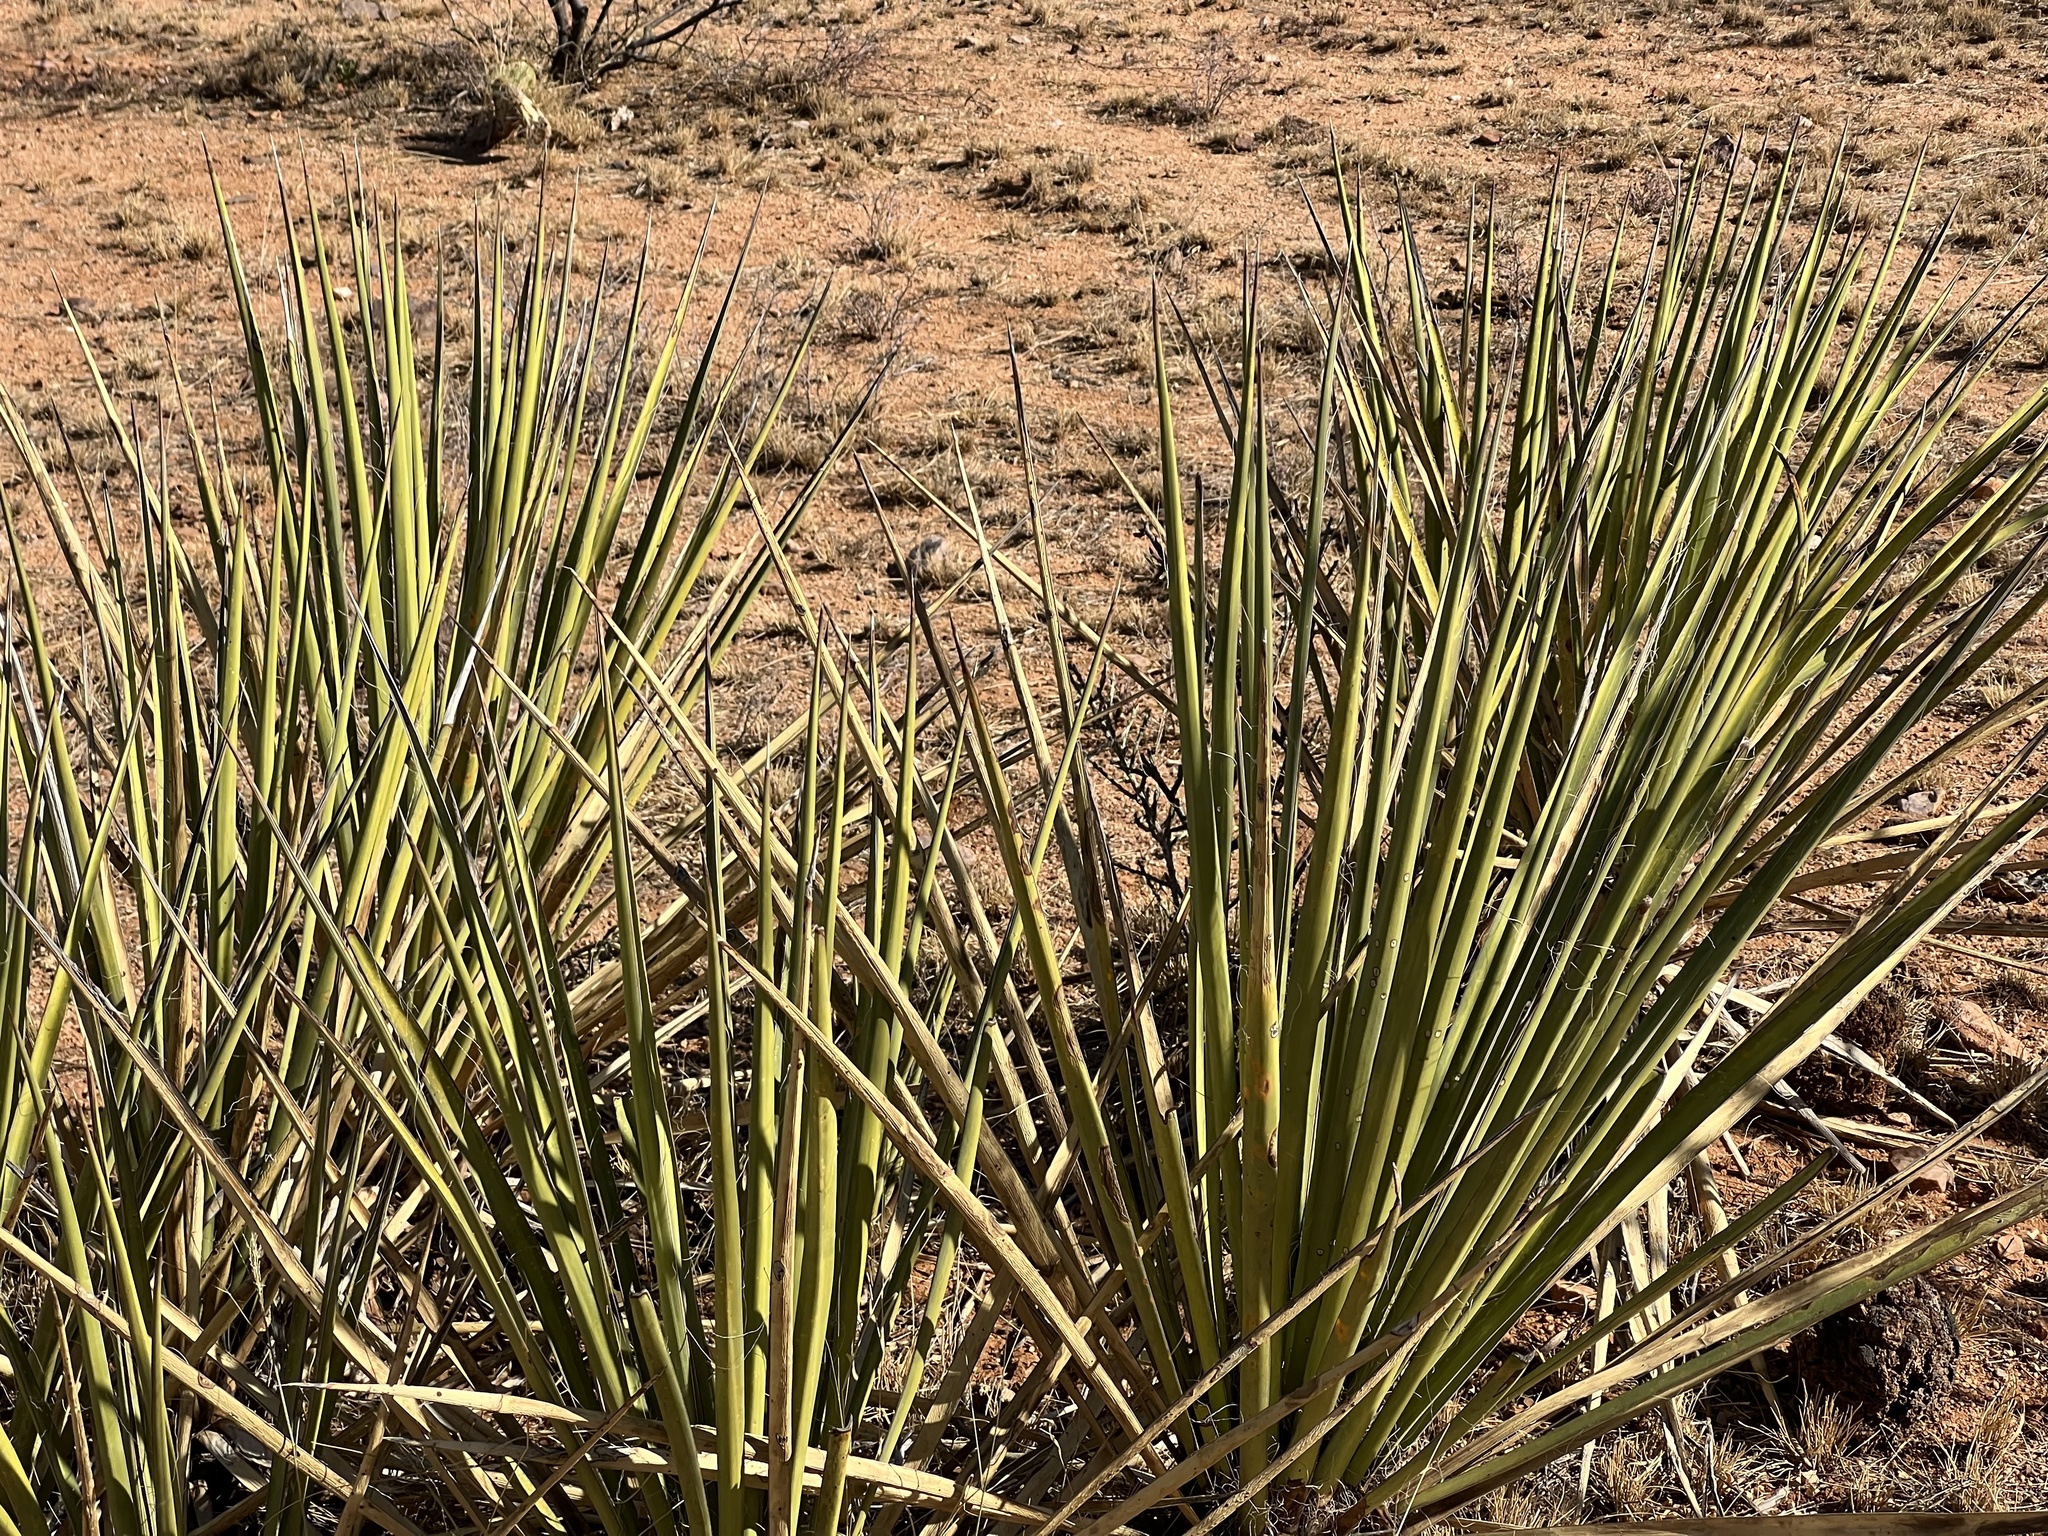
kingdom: Plantae
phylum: Tracheophyta
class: Liliopsida
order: Asparagales
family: Asparagaceae
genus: Yucca
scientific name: Yucca baccata
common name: Banana yucca
